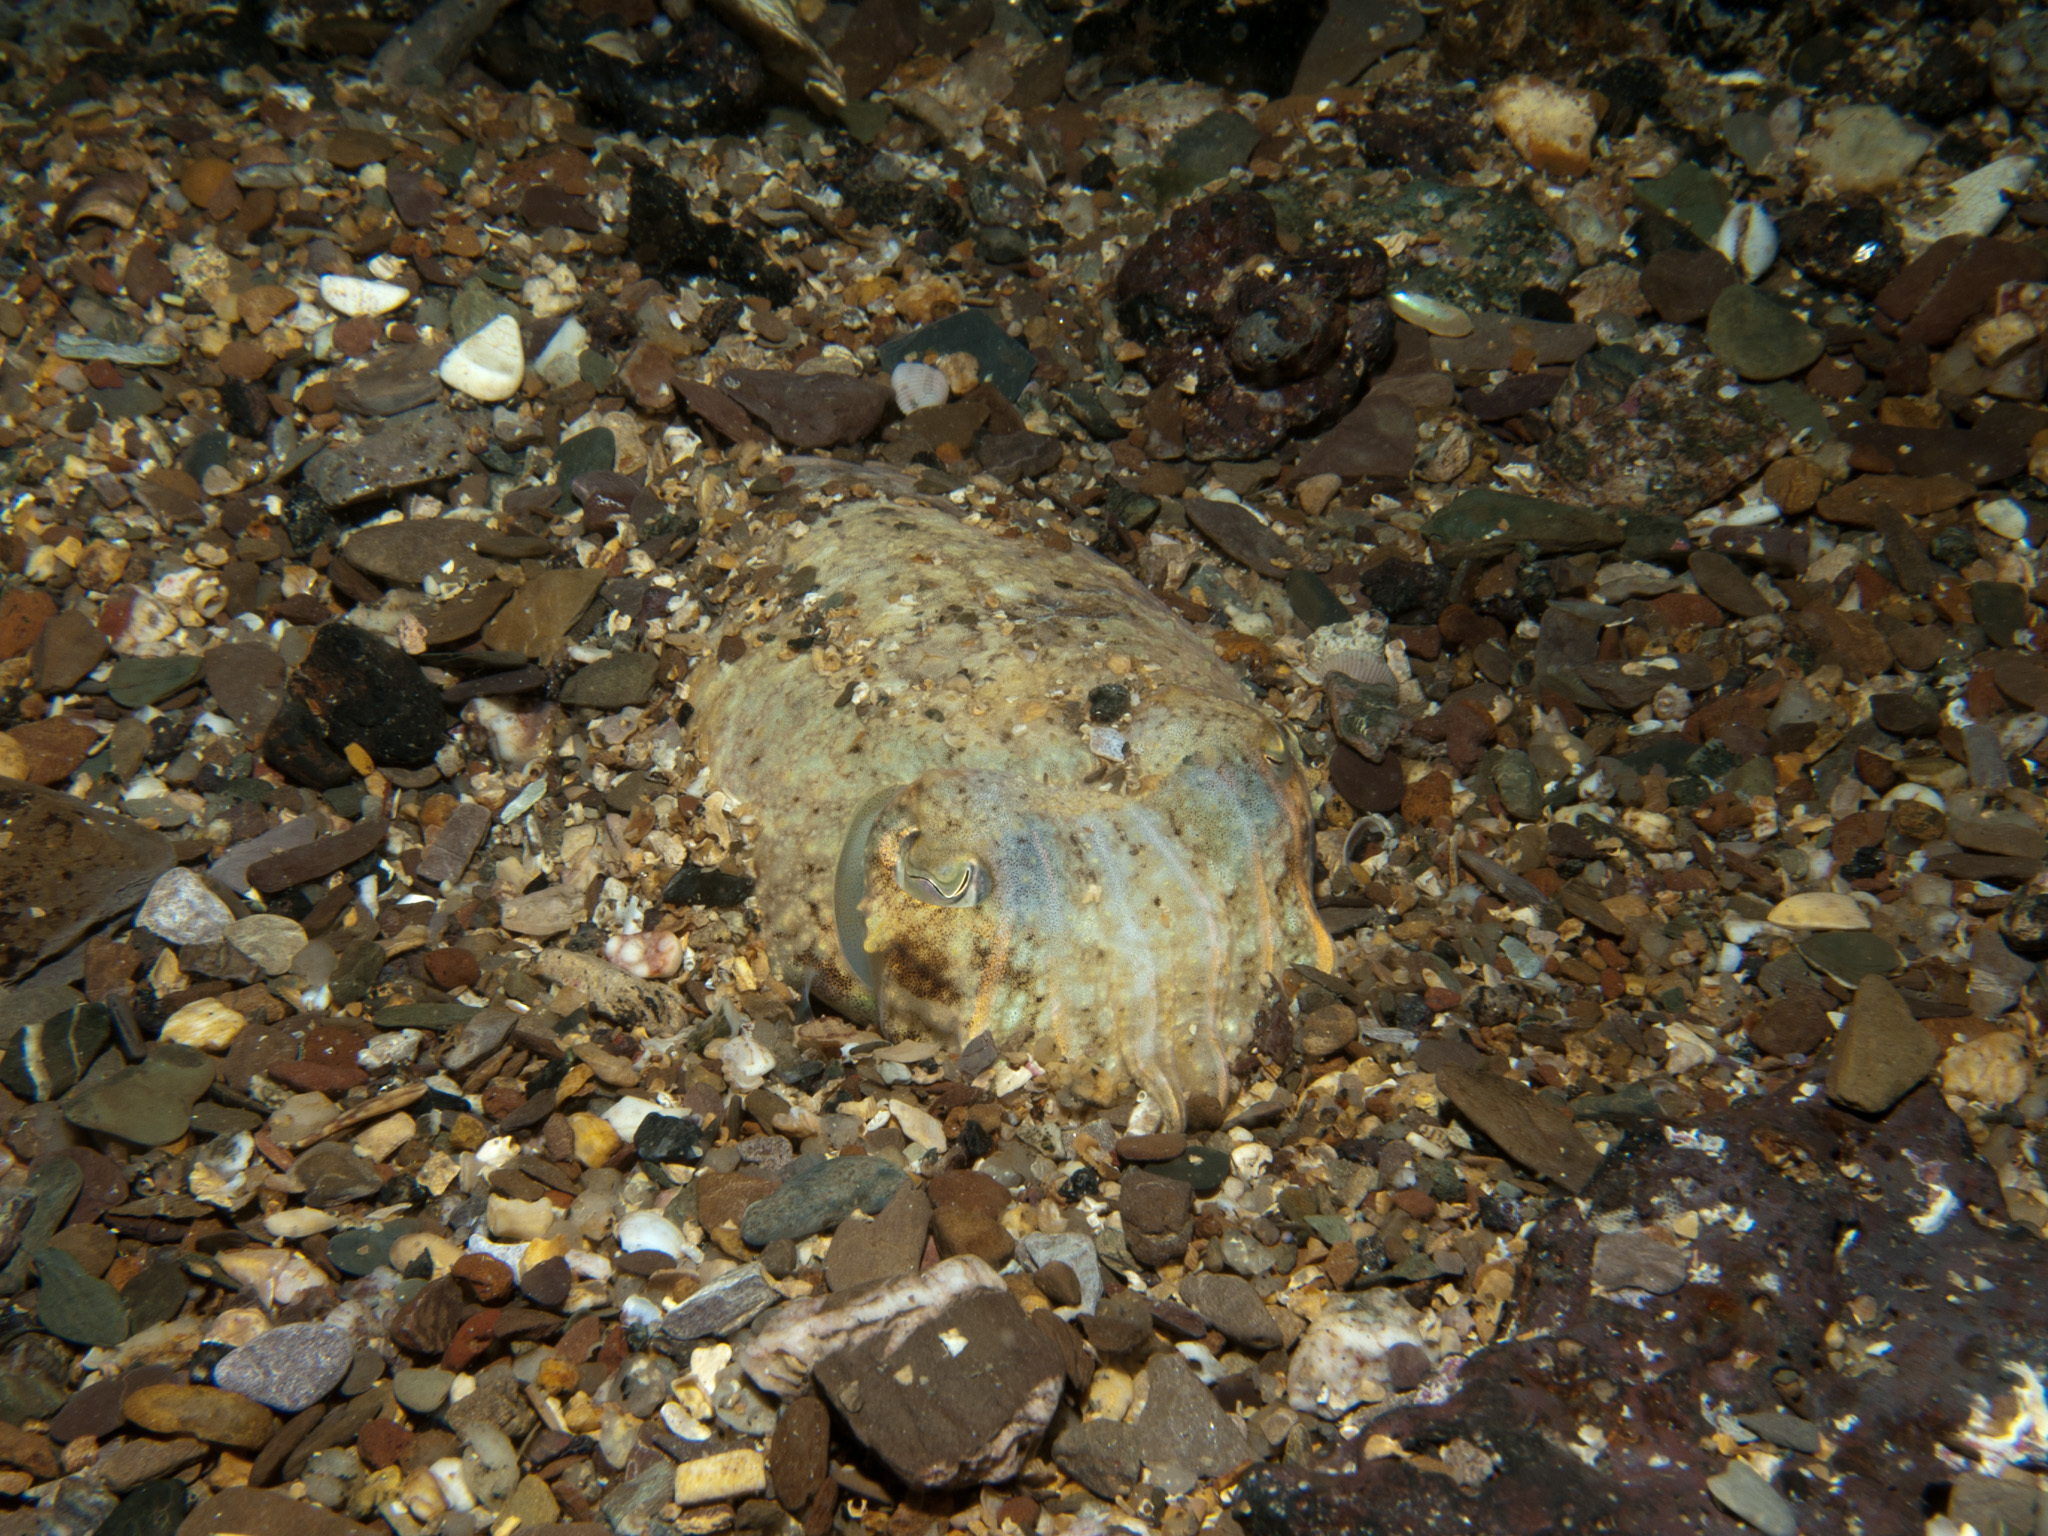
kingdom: Animalia
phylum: Mollusca
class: Cephalopoda
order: Sepiida
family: Sepiidae
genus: Sepia
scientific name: Sepia officinalis
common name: Common cuttlefish
